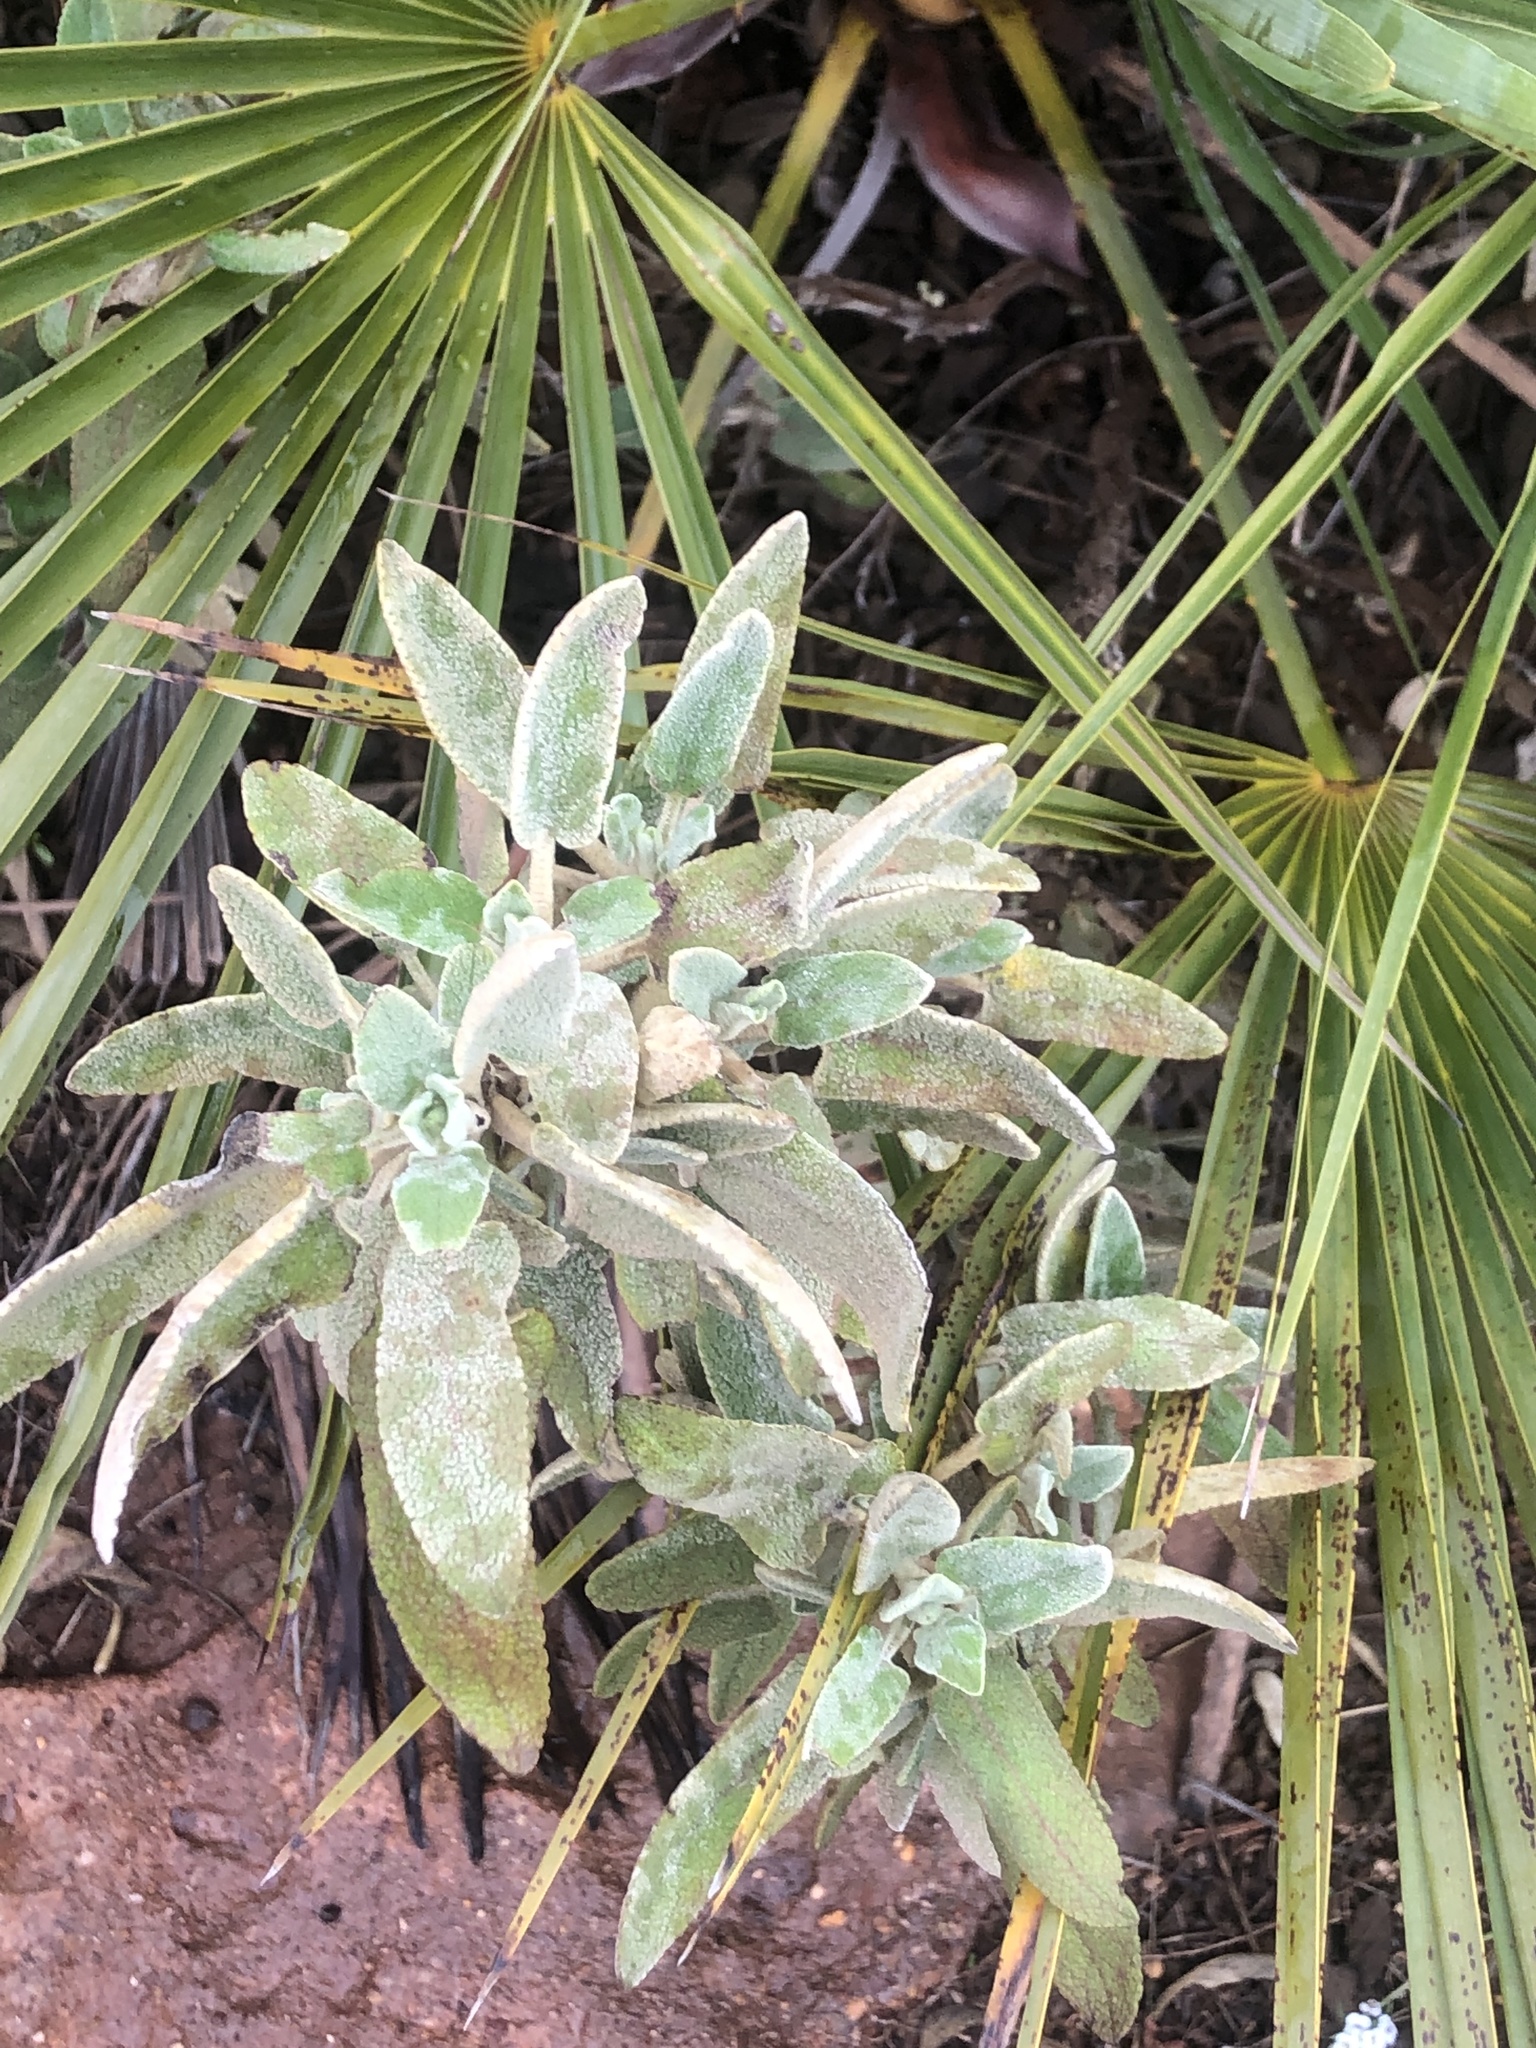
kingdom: Plantae
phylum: Tracheophyta
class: Magnoliopsida
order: Lamiales
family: Lamiaceae
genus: Phlomis
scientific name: Phlomis purpurea
